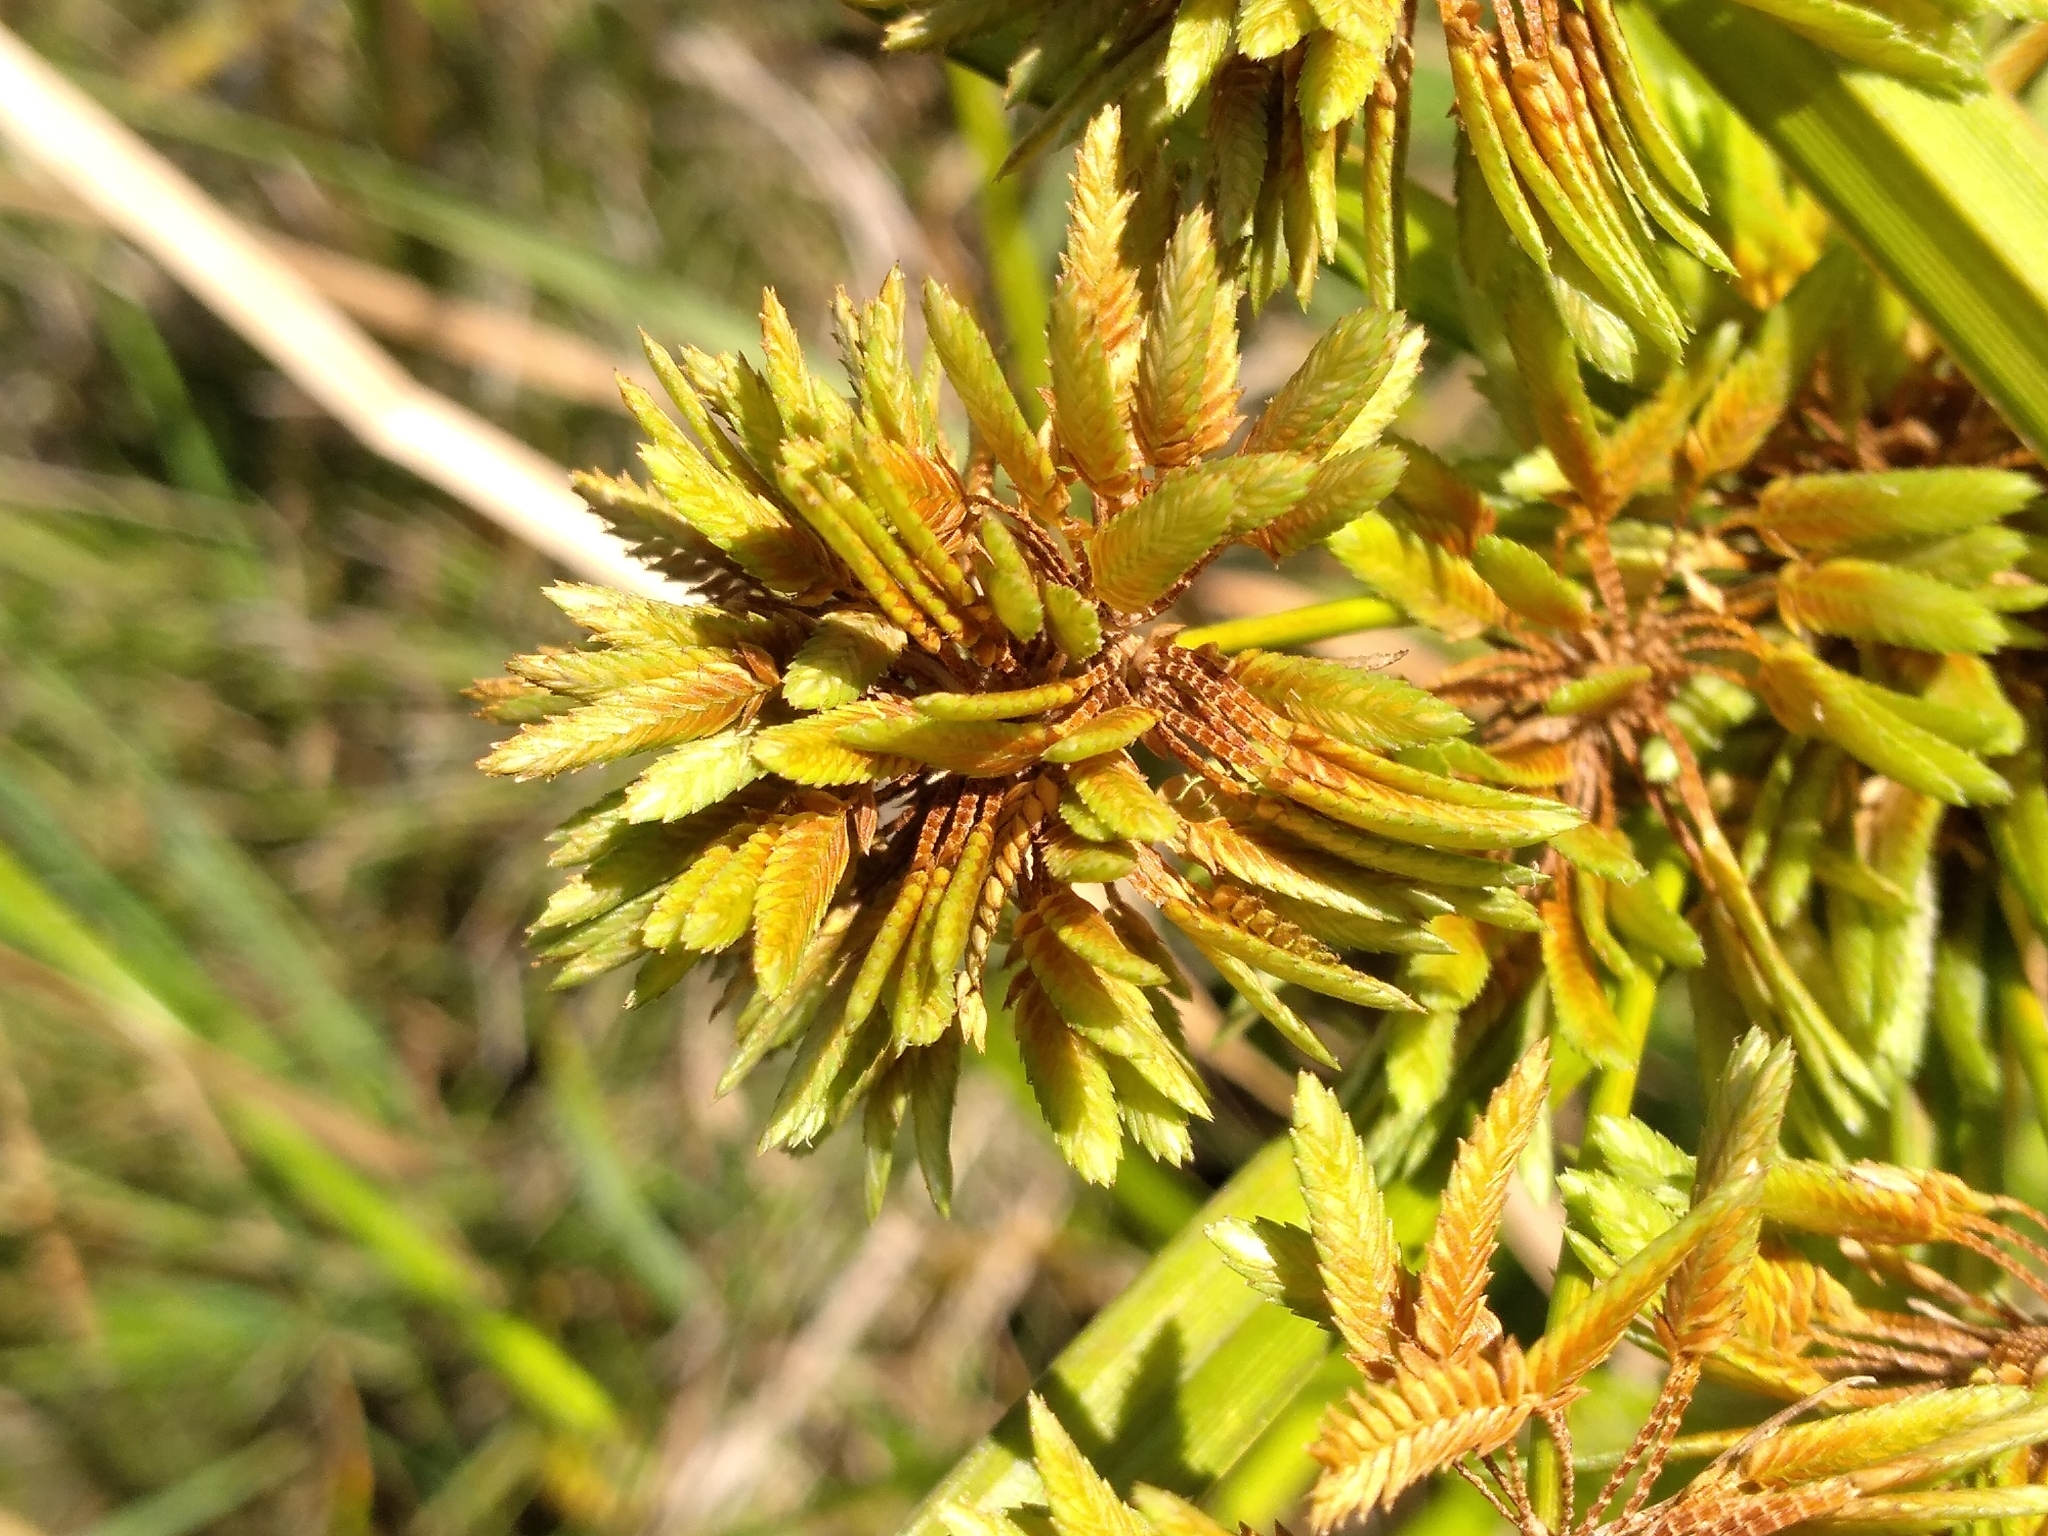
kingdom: Plantae
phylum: Tracheophyta
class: Liliopsida
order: Poales
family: Cyperaceae
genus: Cyperus
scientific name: Cyperus eragrostis
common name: Tall flatsedge
